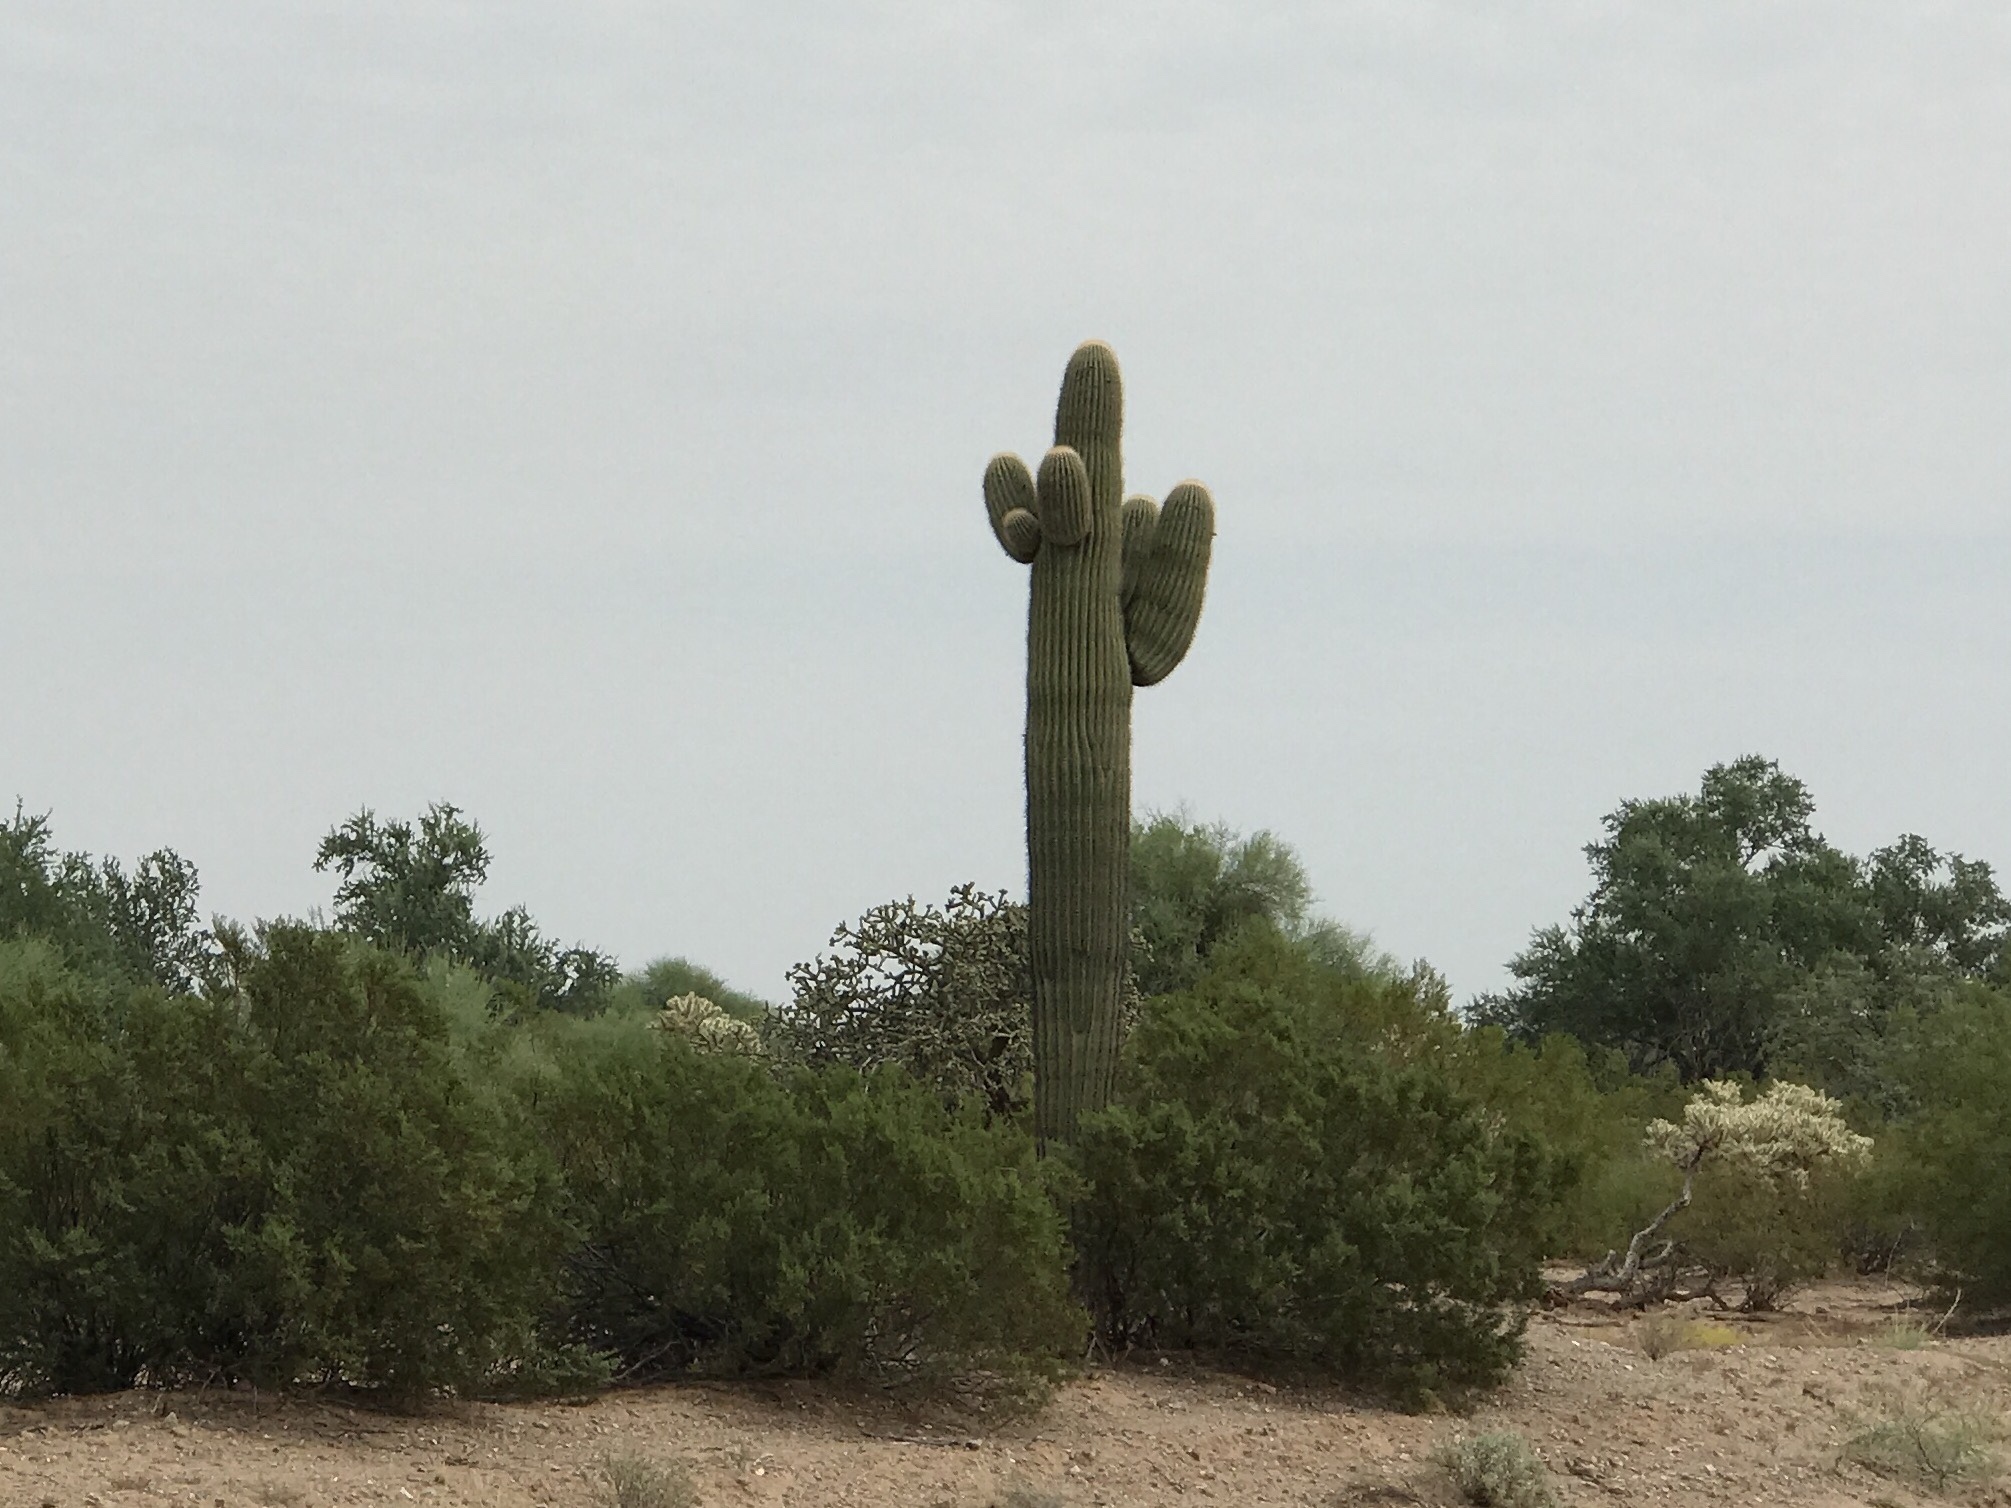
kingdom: Plantae
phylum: Tracheophyta
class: Magnoliopsida
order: Caryophyllales
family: Cactaceae
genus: Carnegiea
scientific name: Carnegiea gigantea
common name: Saguaro
